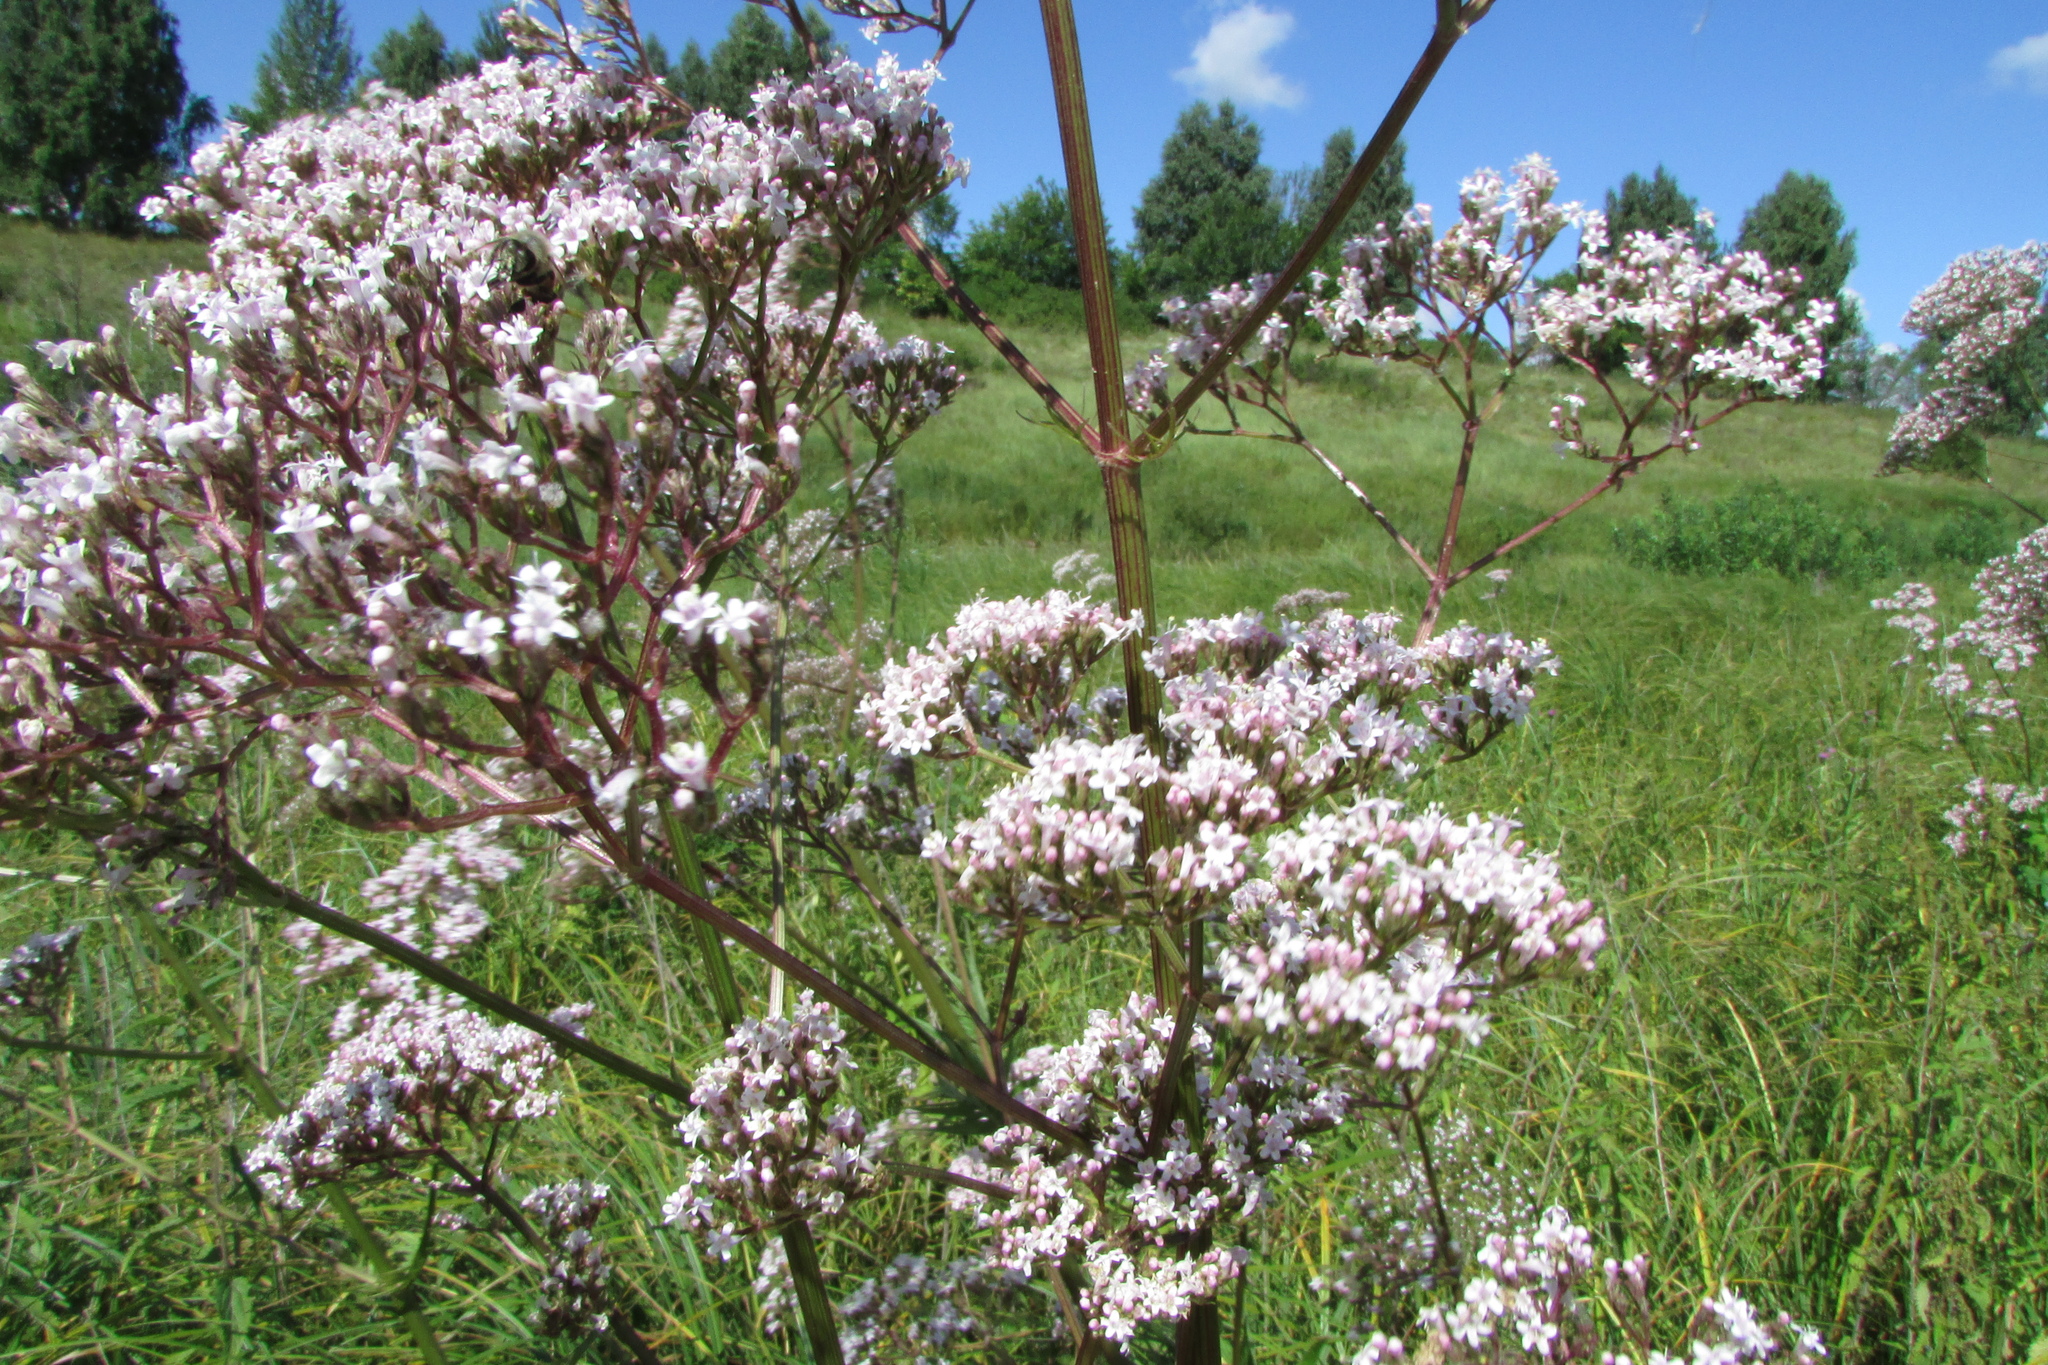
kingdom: Plantae
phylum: Tracheophyta
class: Magnoliopsida
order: Dipsacales
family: Caprifoliaceae
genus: Valeriana
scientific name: Valeriana officinalis
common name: Common valerian
